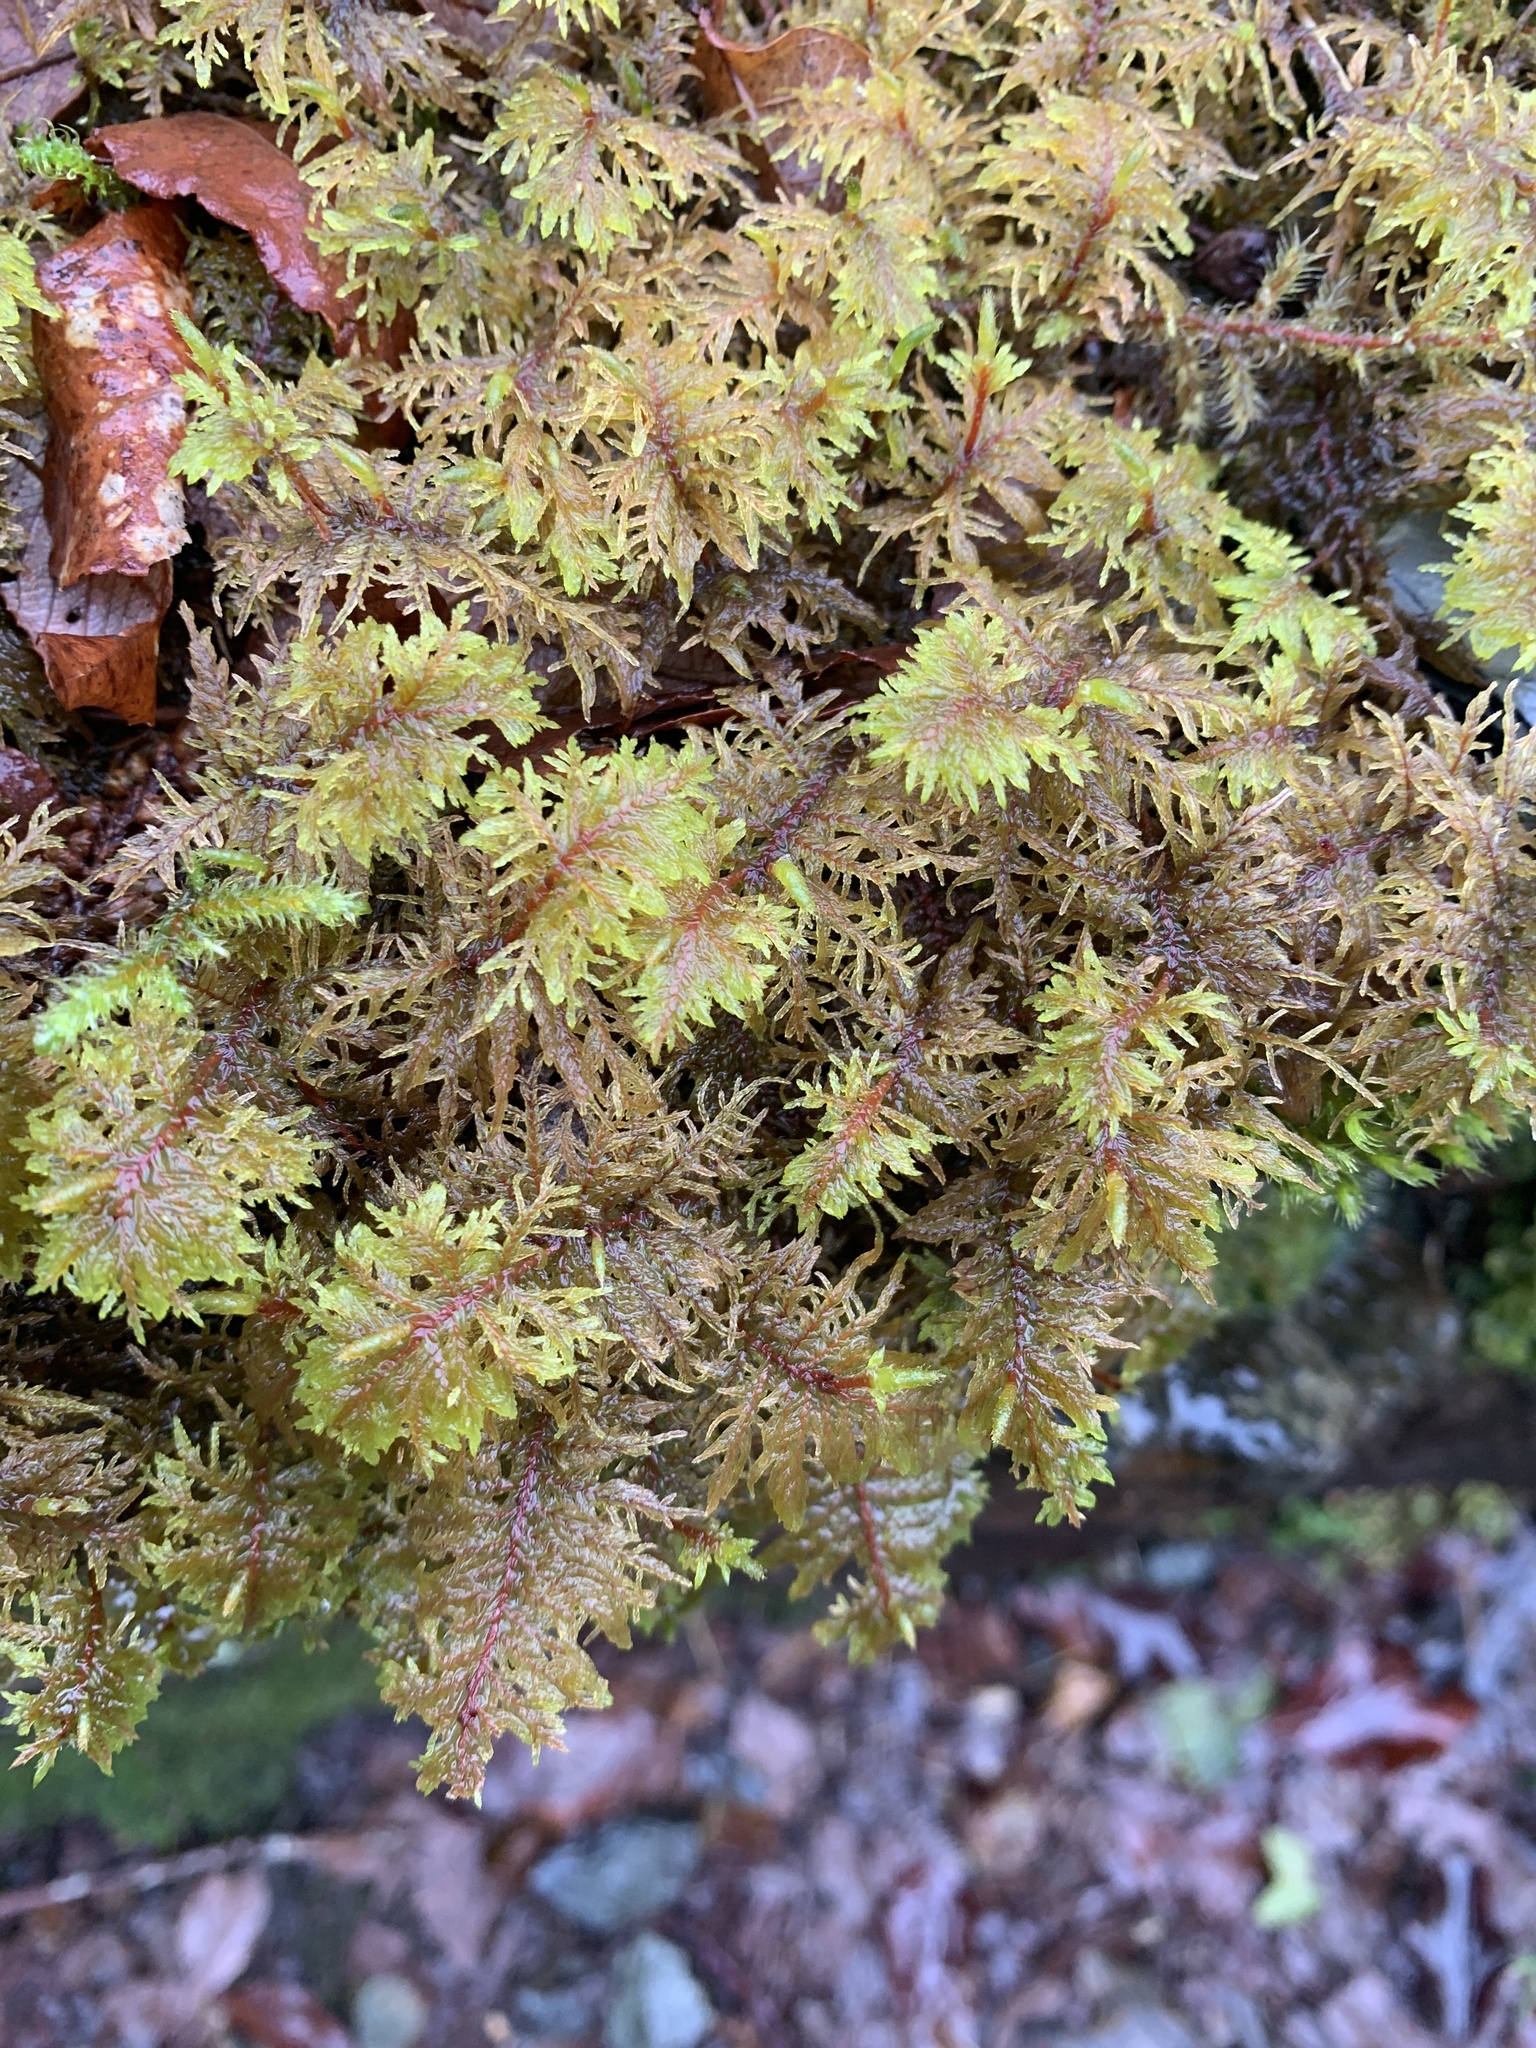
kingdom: Plantae
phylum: Bryophyta
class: Bryopsida
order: Hypnales
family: Hylocomiaceae
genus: Hylocomium
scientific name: Hylocomium splendens
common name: Stairstep moss
